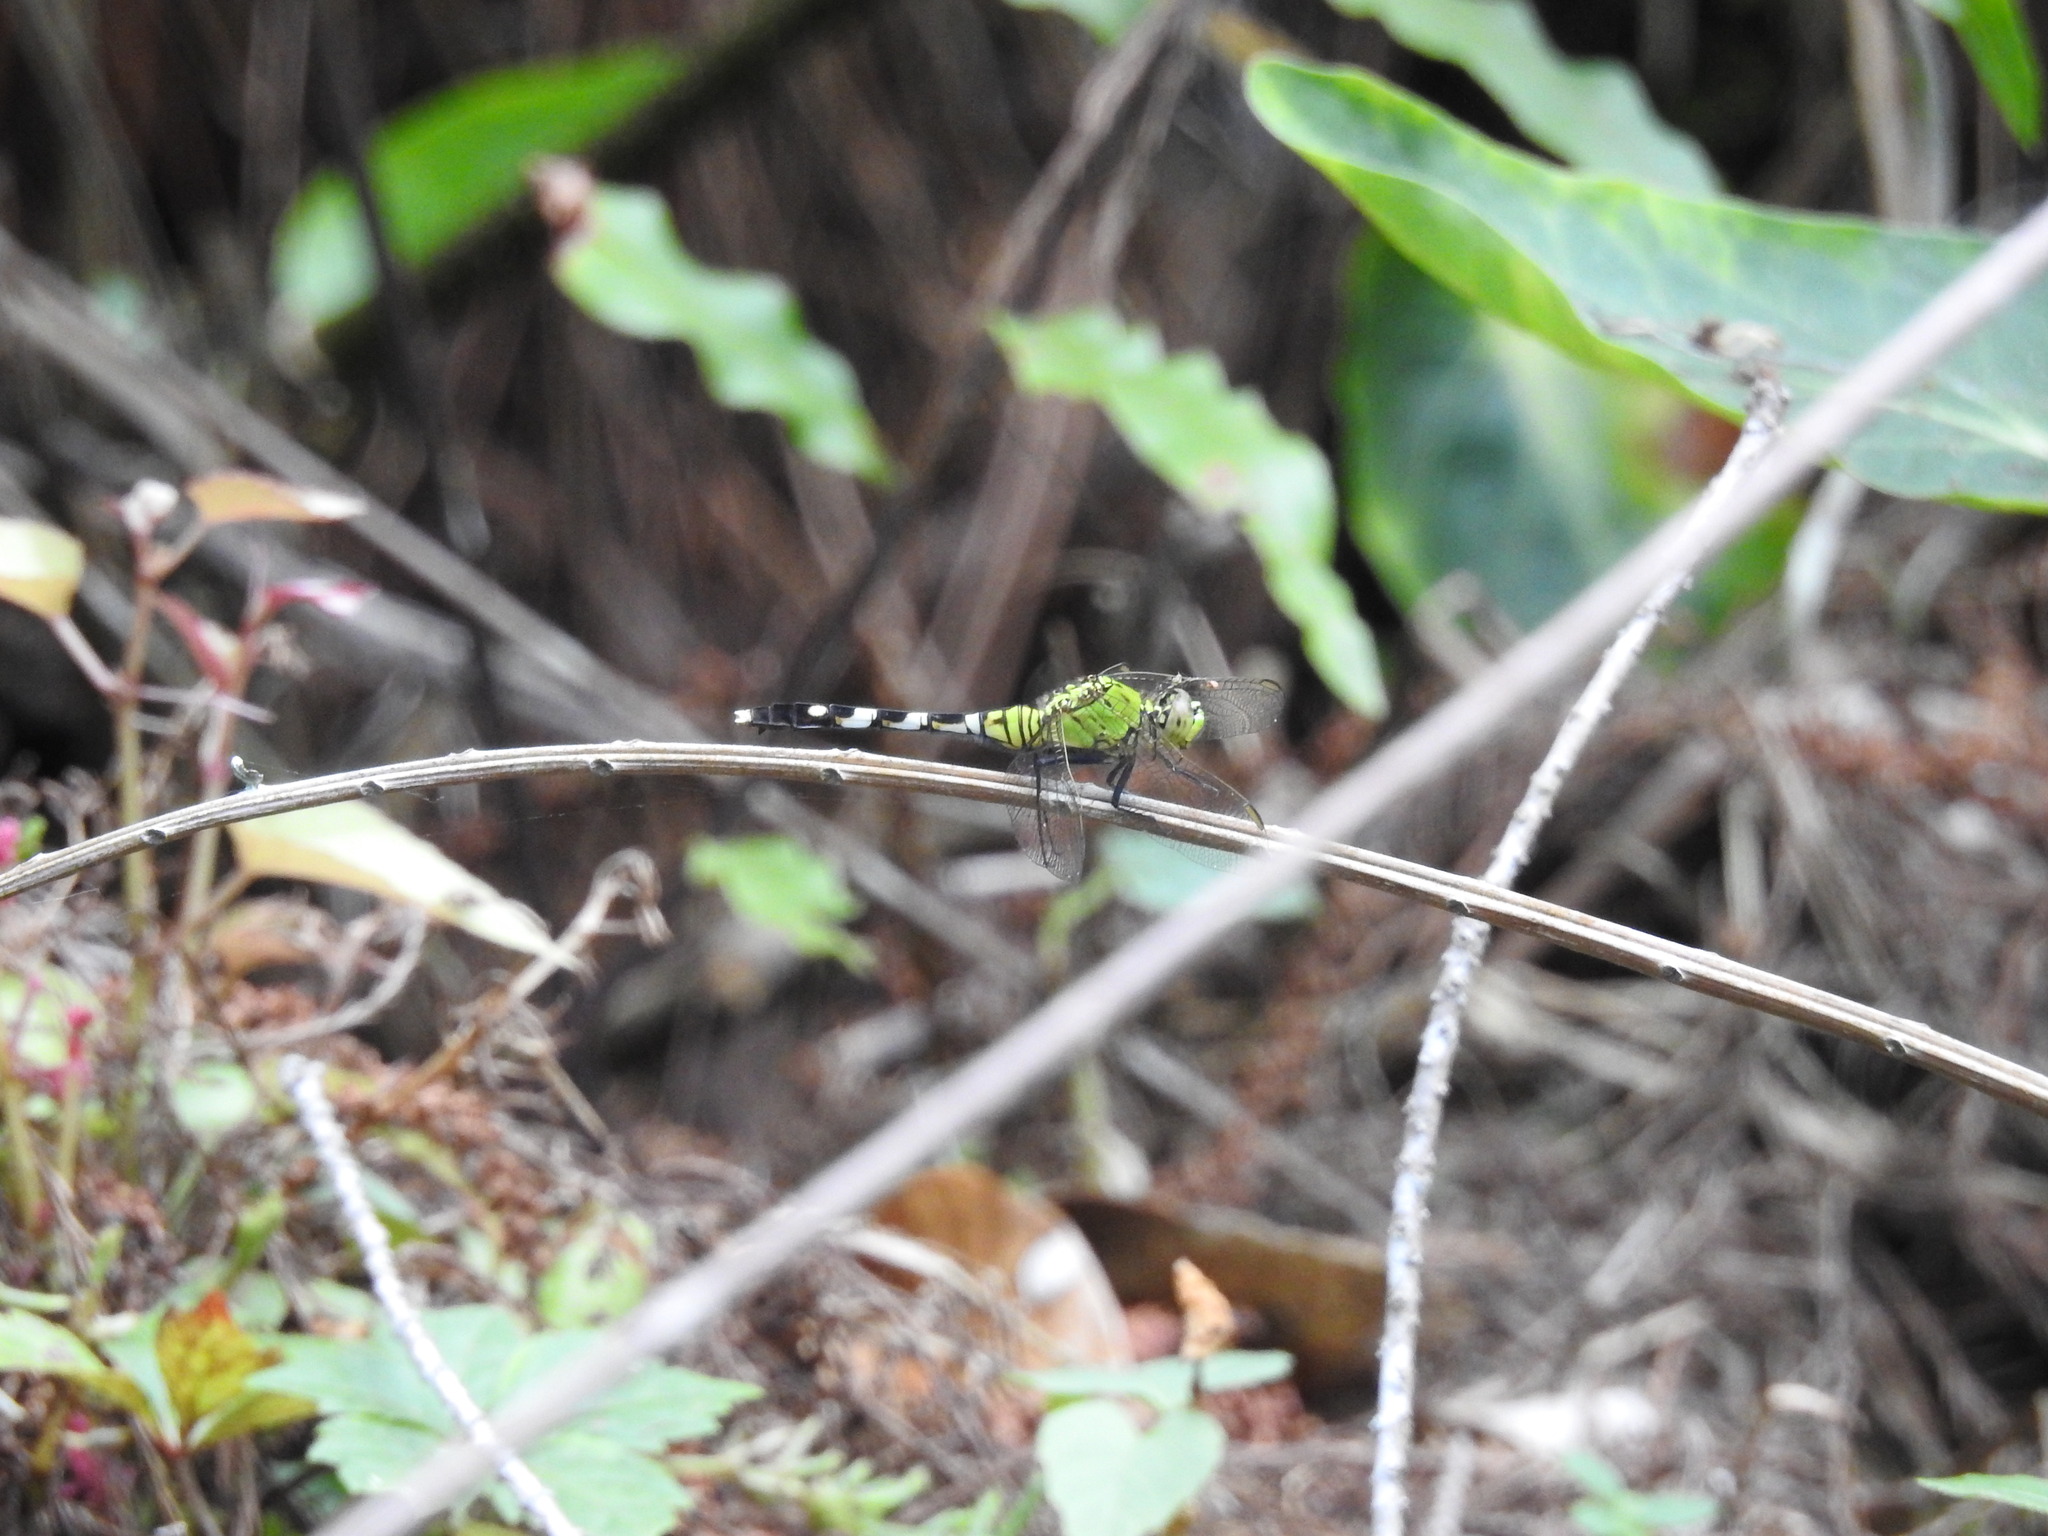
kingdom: Animalia
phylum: Arthropoda
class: Insecta
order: Odonata
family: Libellulidae
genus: Erythemis
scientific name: Erythemis simplicicollis
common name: Eastern pondhawk
